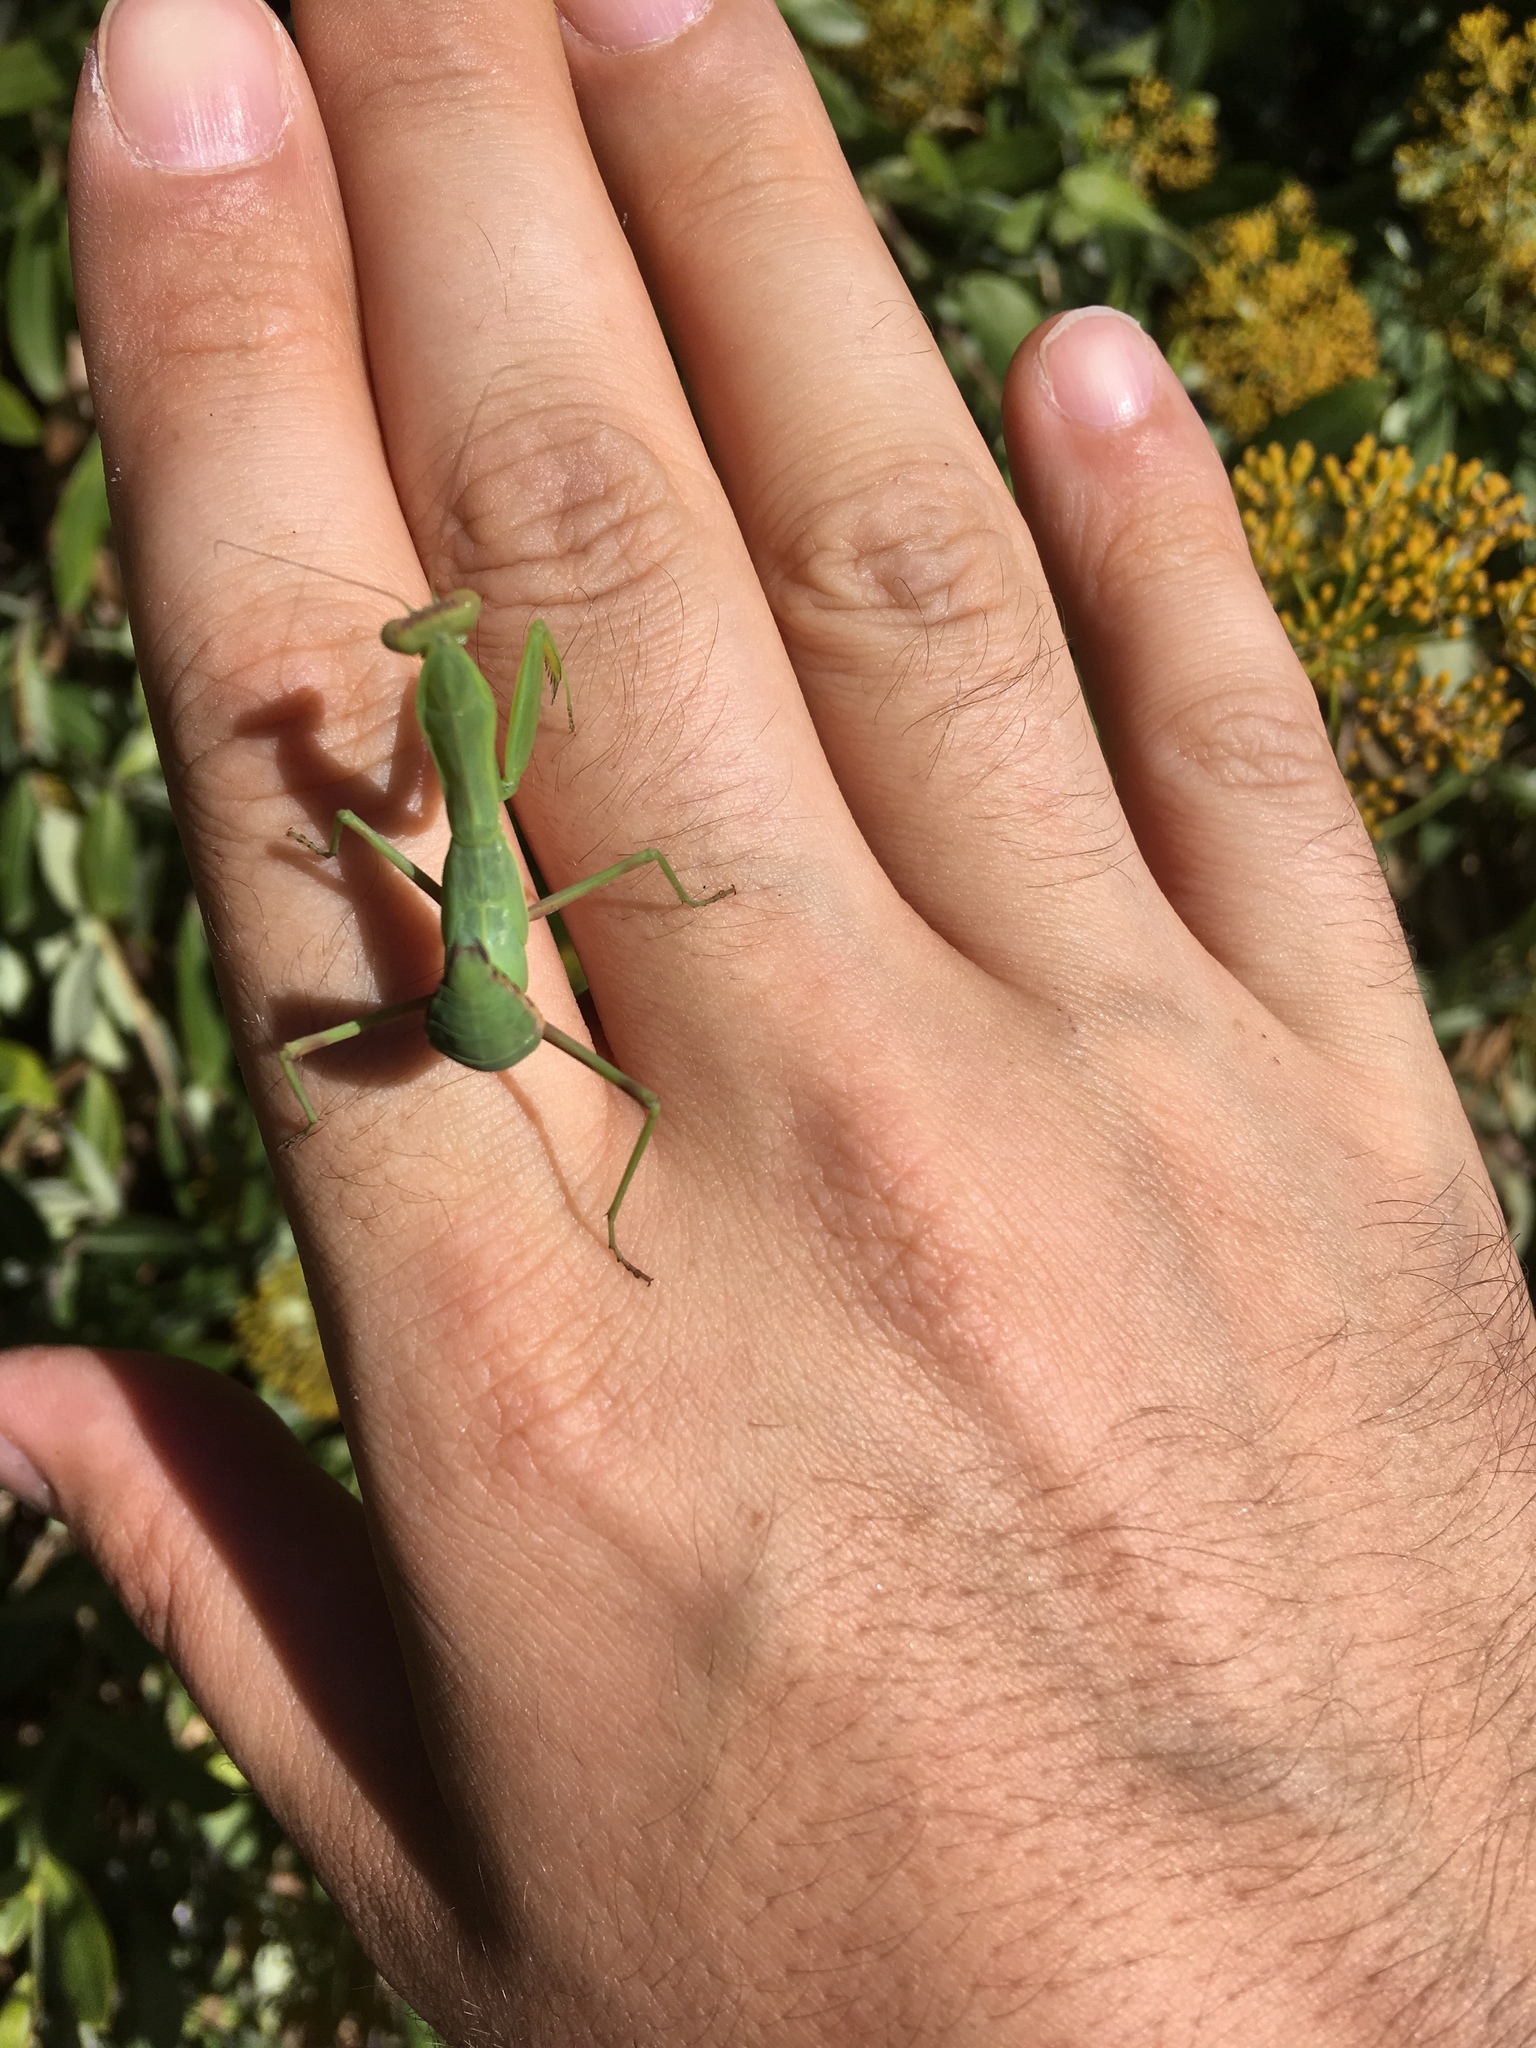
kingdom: Animalia
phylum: Arthropoda
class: Insecta
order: Mantodea
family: Mantidae
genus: Hierodula
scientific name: Hierodula
